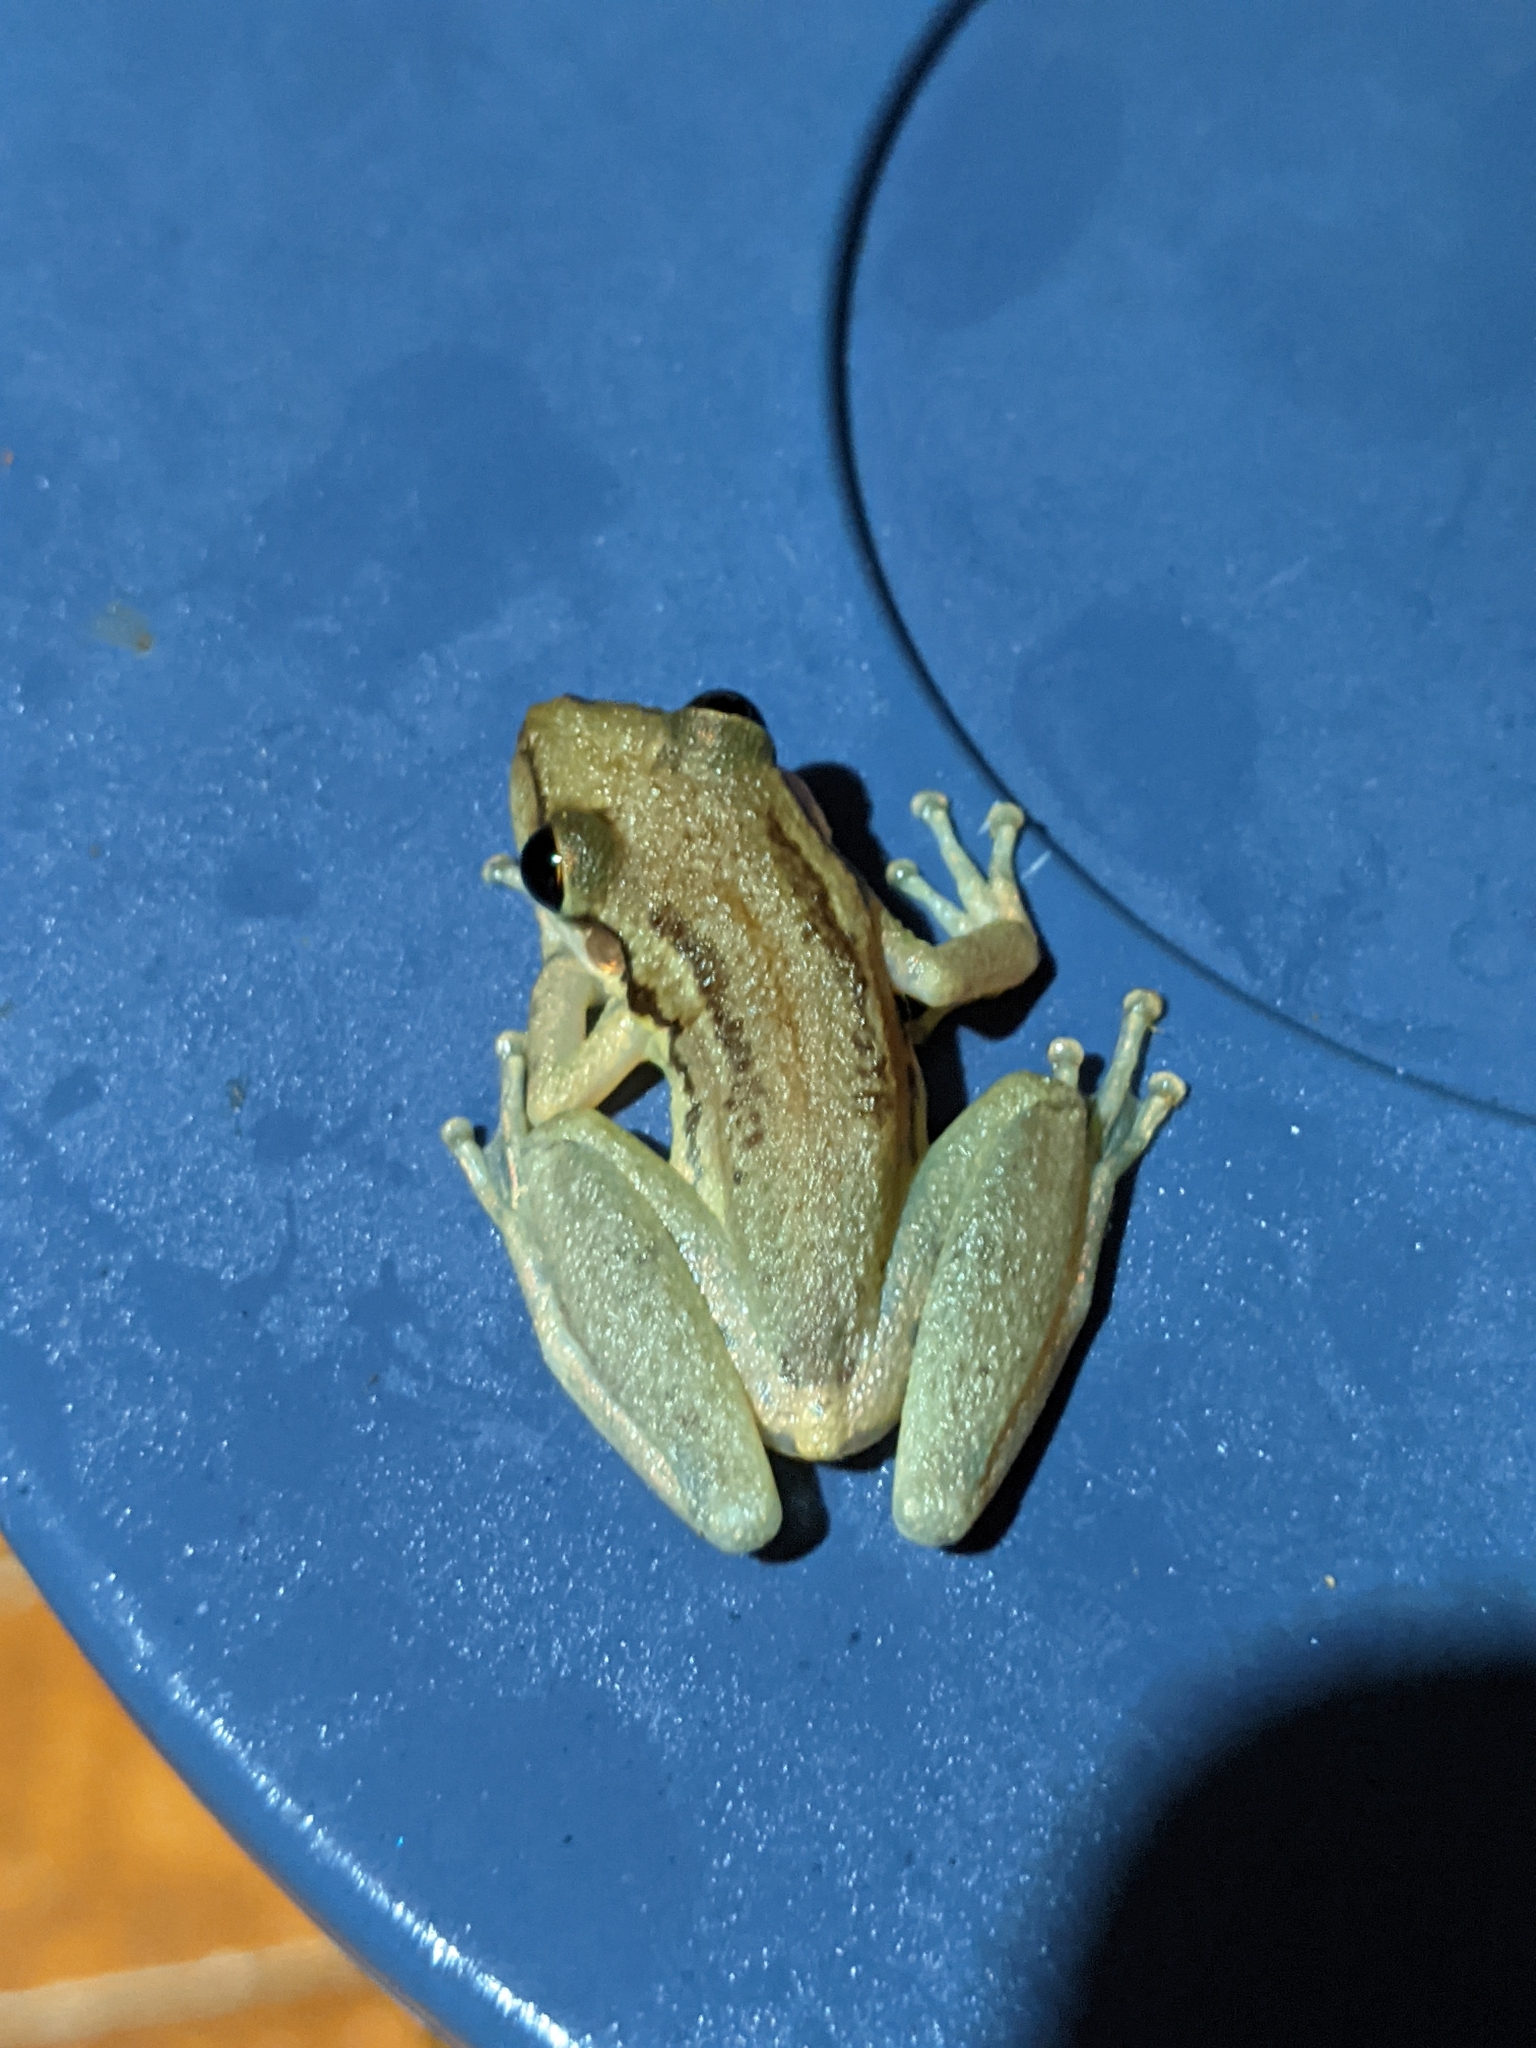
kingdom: Animalia
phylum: Chordata
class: Amphibia
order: Anura
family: Hylidae
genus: Scinax
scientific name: Scinax ruber
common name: Red snouted treefrog
